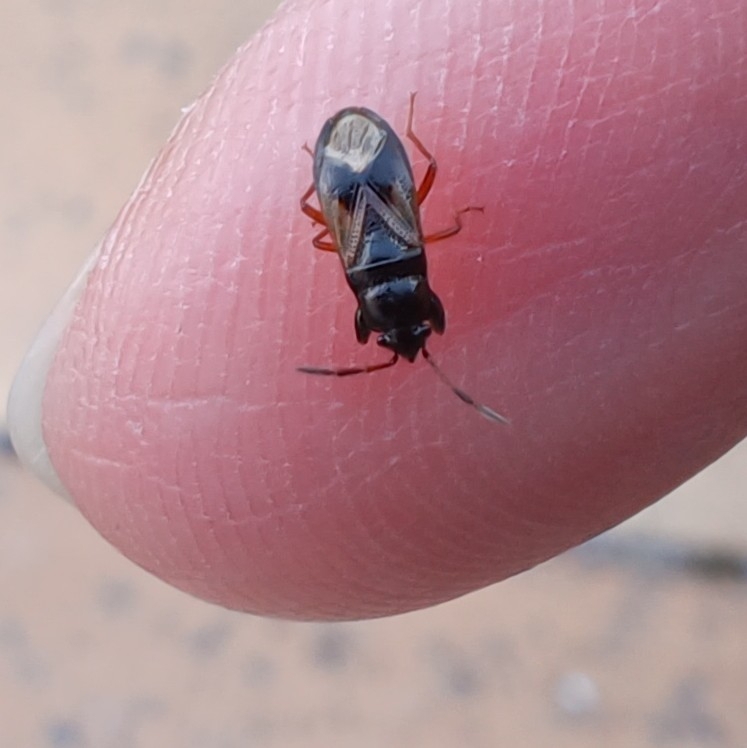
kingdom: Animalia
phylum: Arthropoda
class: Insecta
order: Hemiptera
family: Rhyparochromidae
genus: Megalonotus
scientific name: Megalonotus praetextatus
